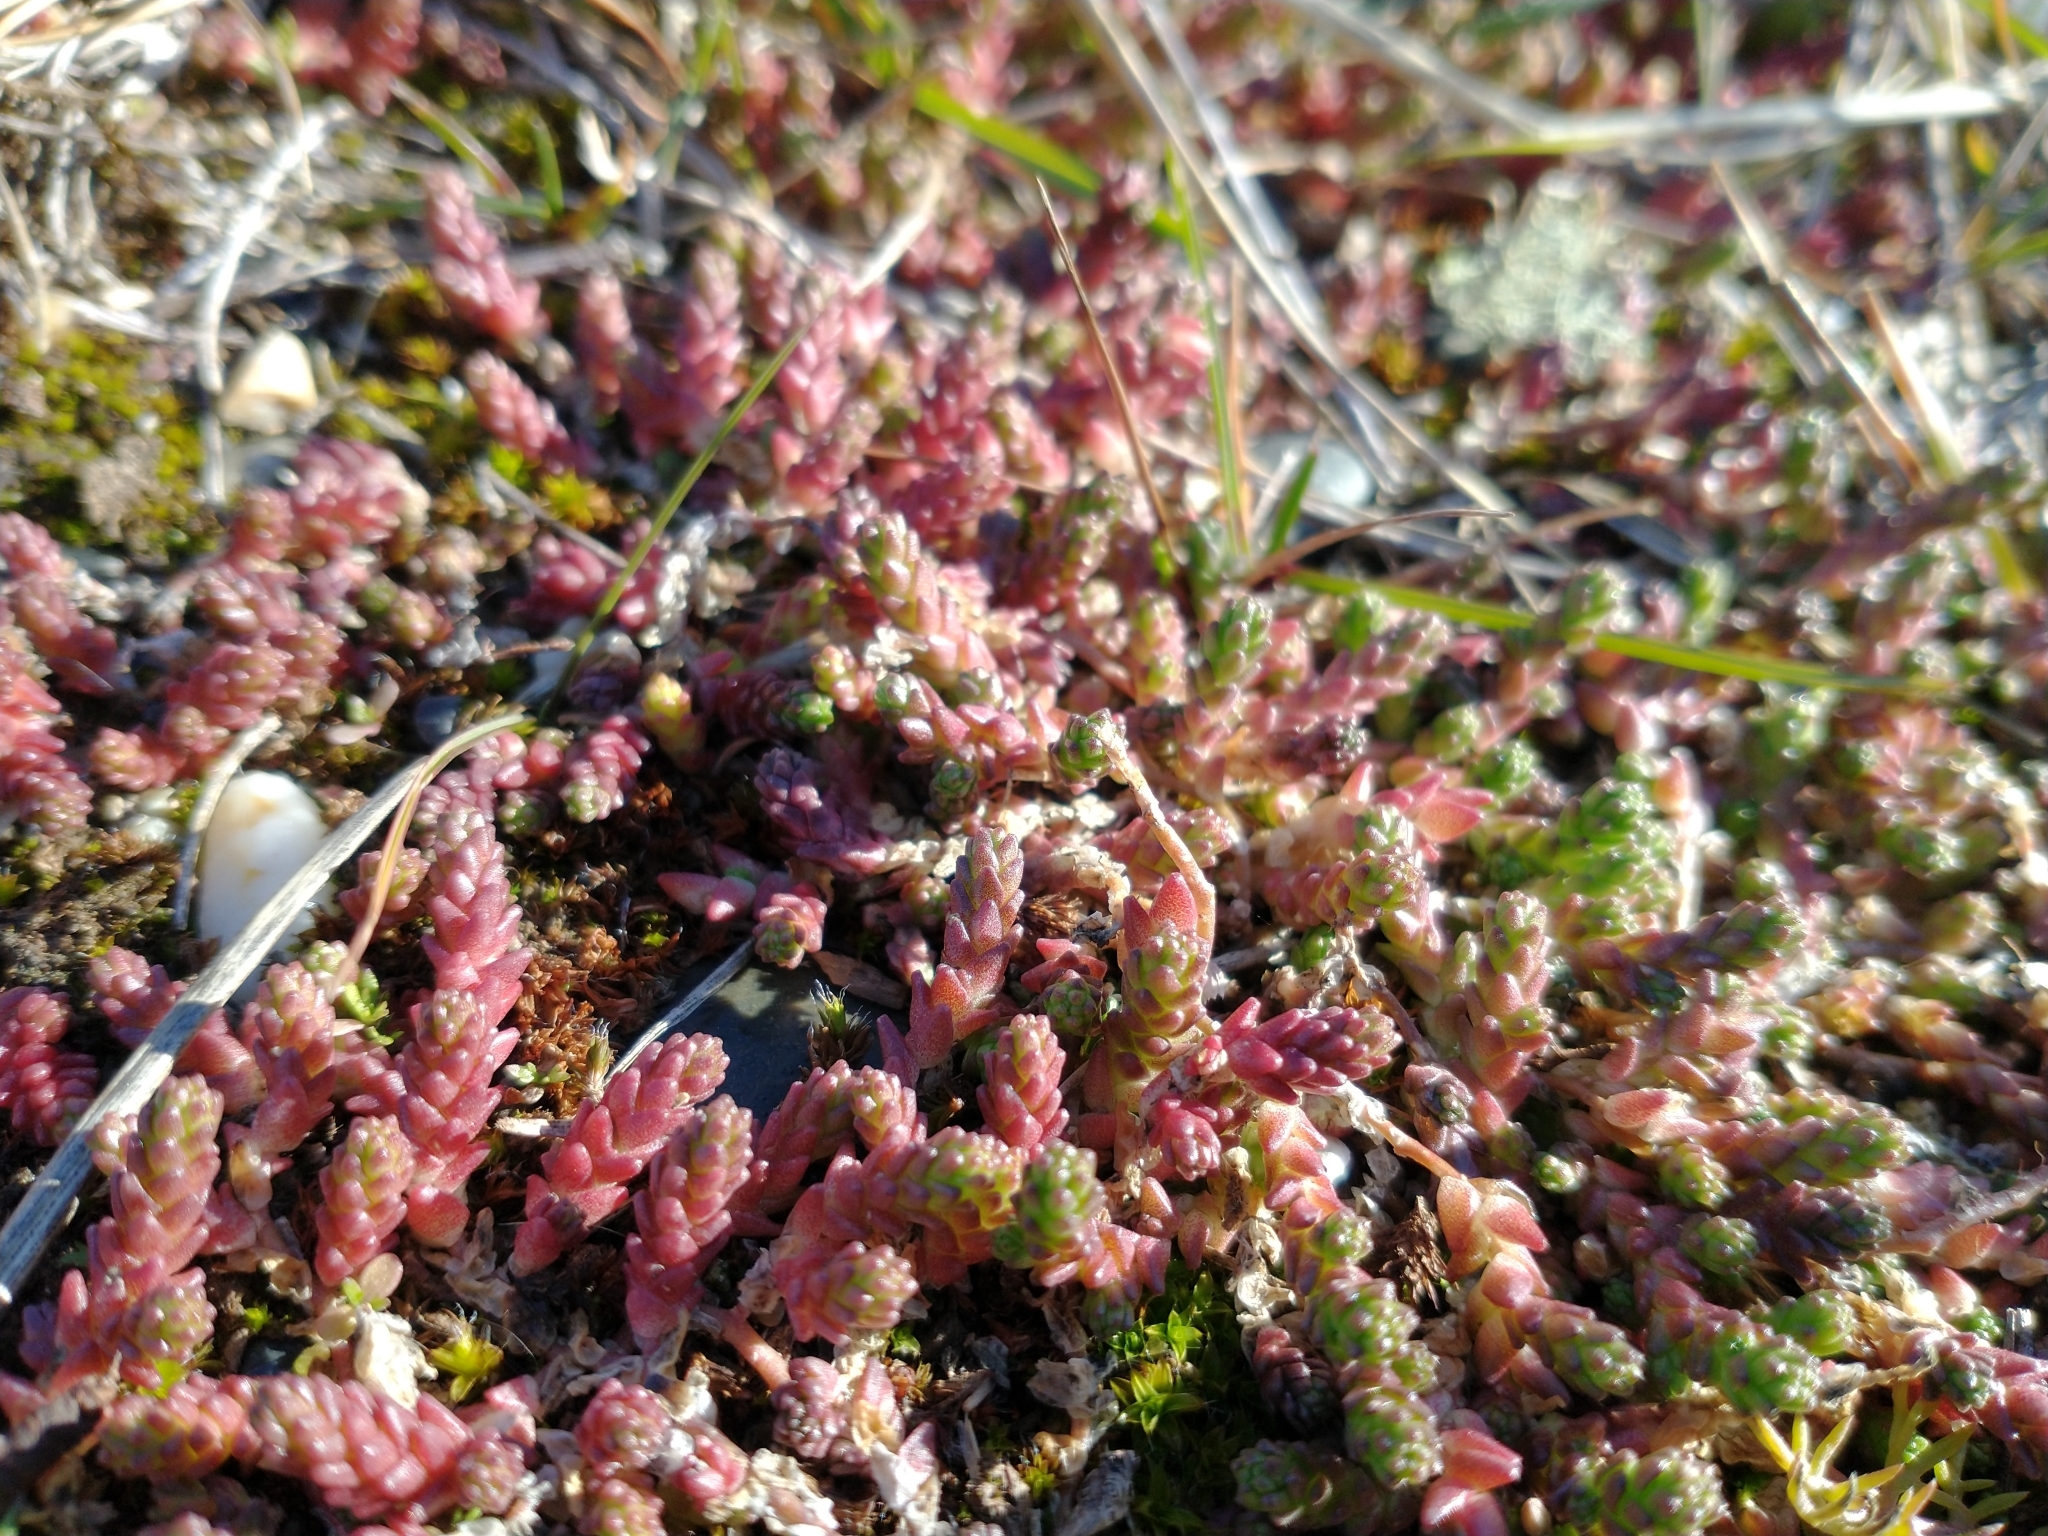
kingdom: Plantae
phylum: Tracheophyta
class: Magnoliopsida
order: Saxifragales
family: Crassulaceae
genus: Sedum
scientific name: Sedum acre
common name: Biting stonecrop
